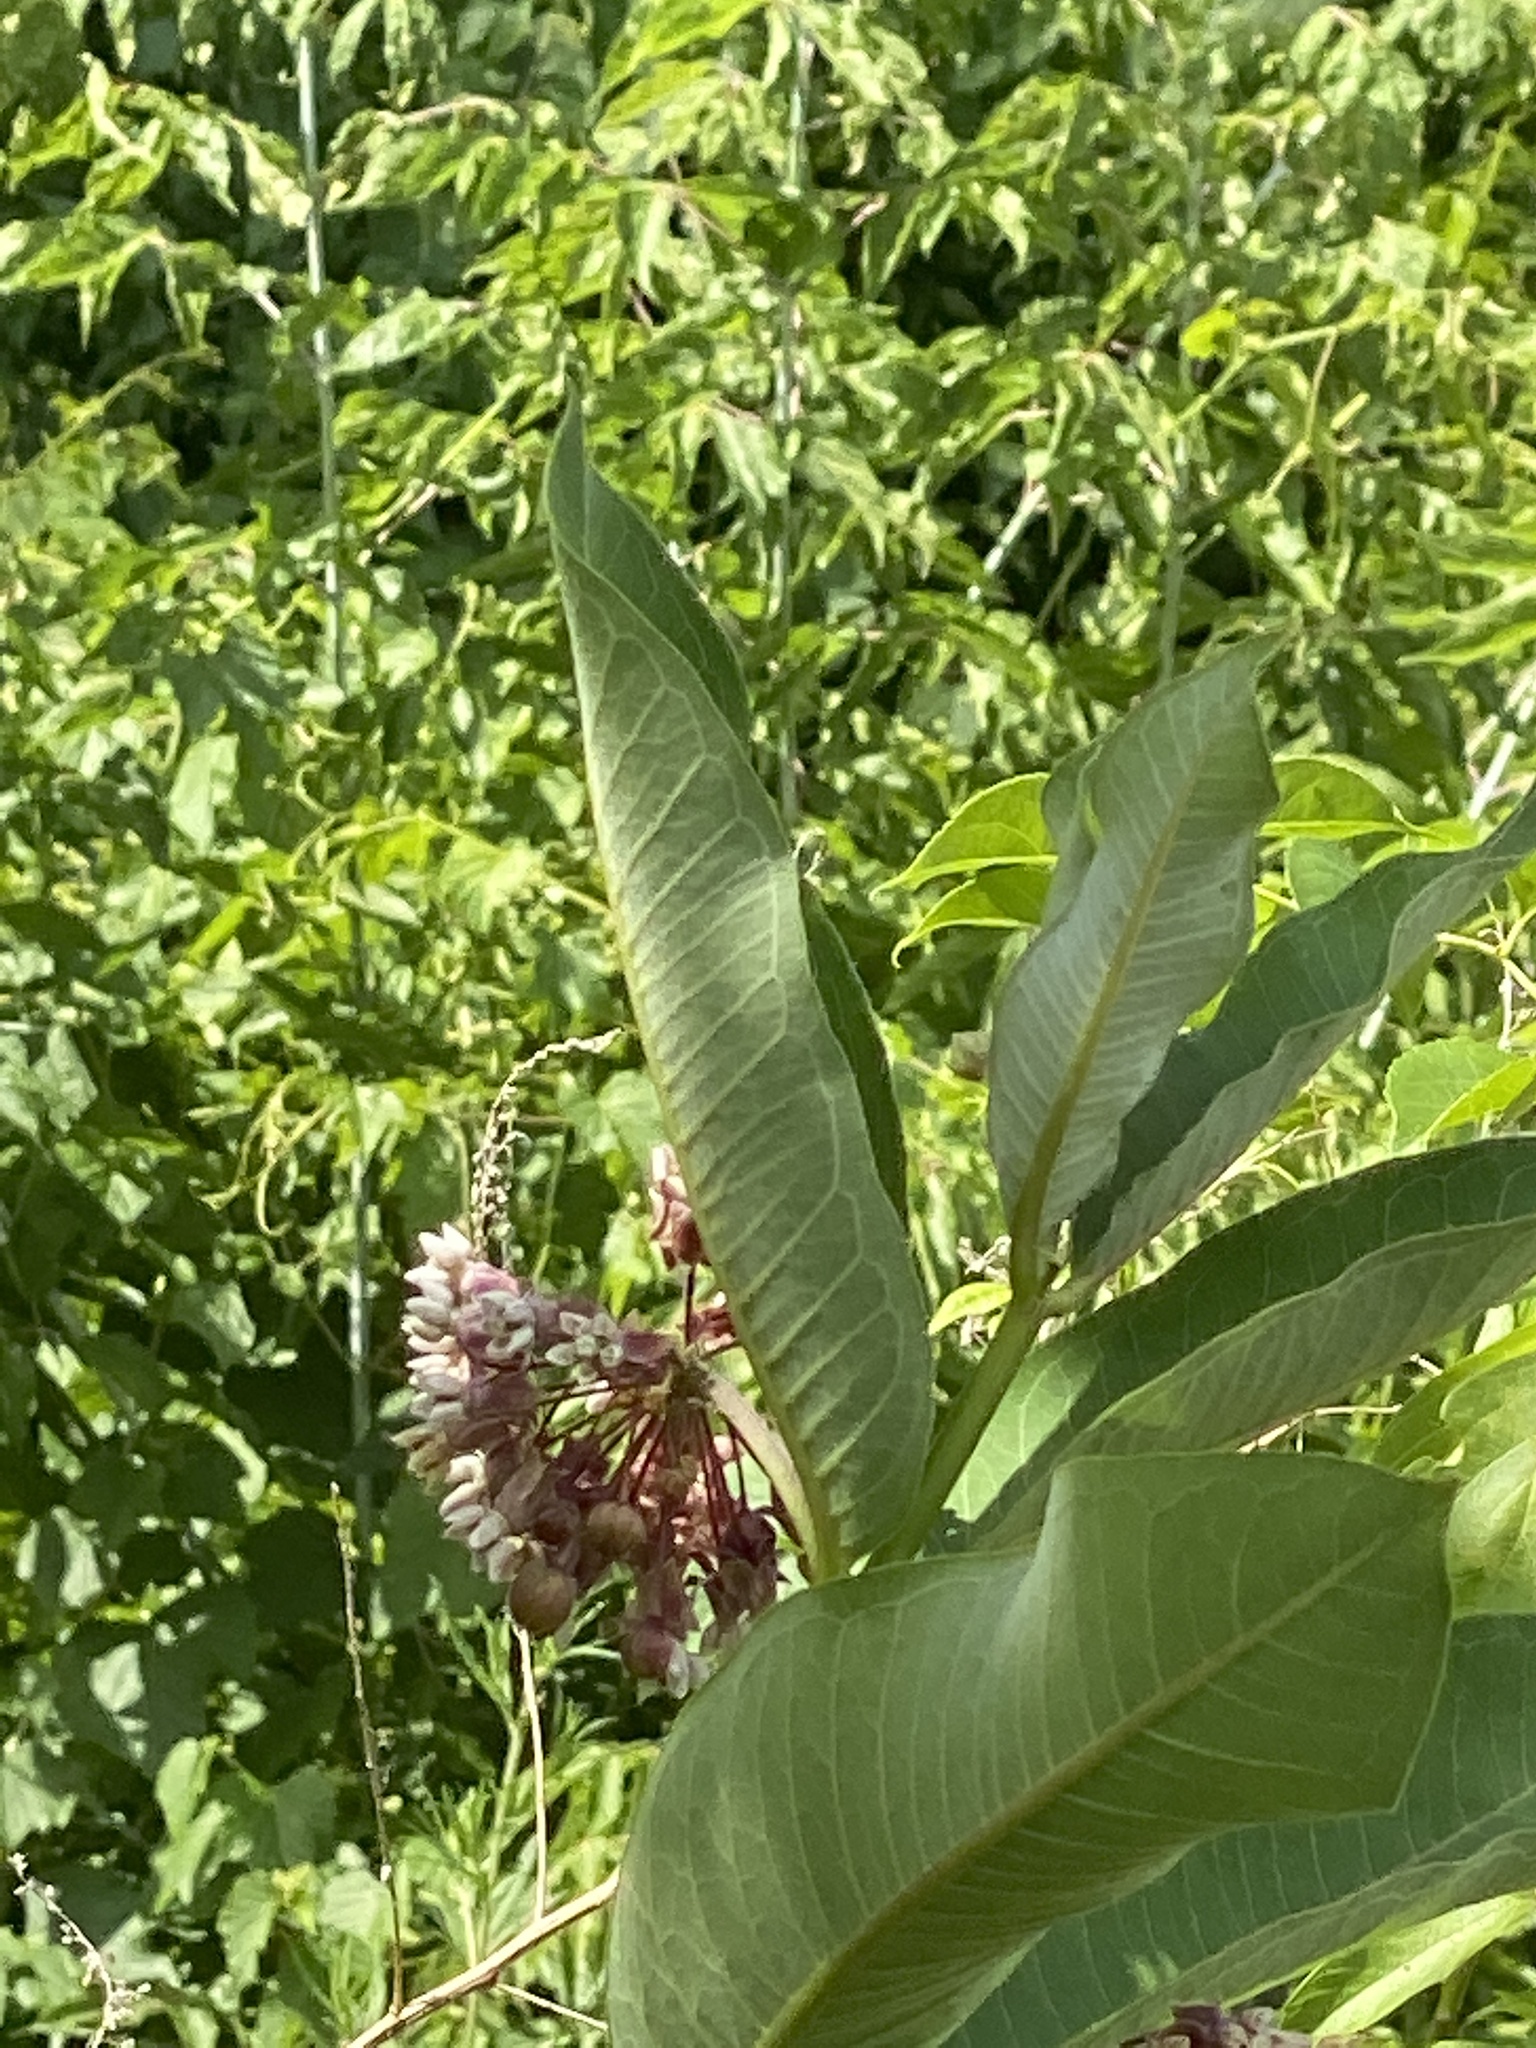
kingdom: Plantae
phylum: Tracheophyta
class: Magnoliopsida
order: Gentianales
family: Apocynaceae
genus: Asclepias
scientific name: Asclepias syriaca
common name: Common milkweed
